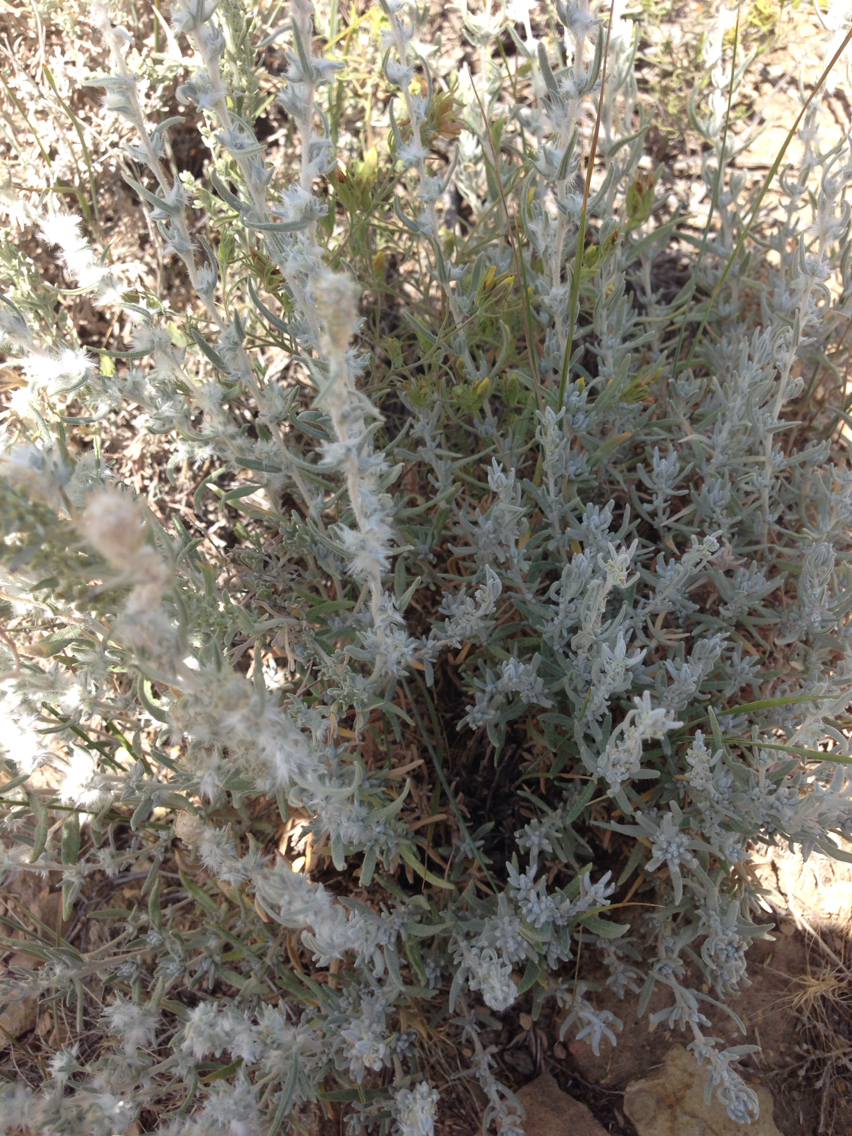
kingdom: Plantae
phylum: Tracheophyta
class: Magnoliopsida
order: Caryophyllales
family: Amaranthaceae
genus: Krascheninnikovia
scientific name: Krascheninnikovia lanata
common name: Winterfat
